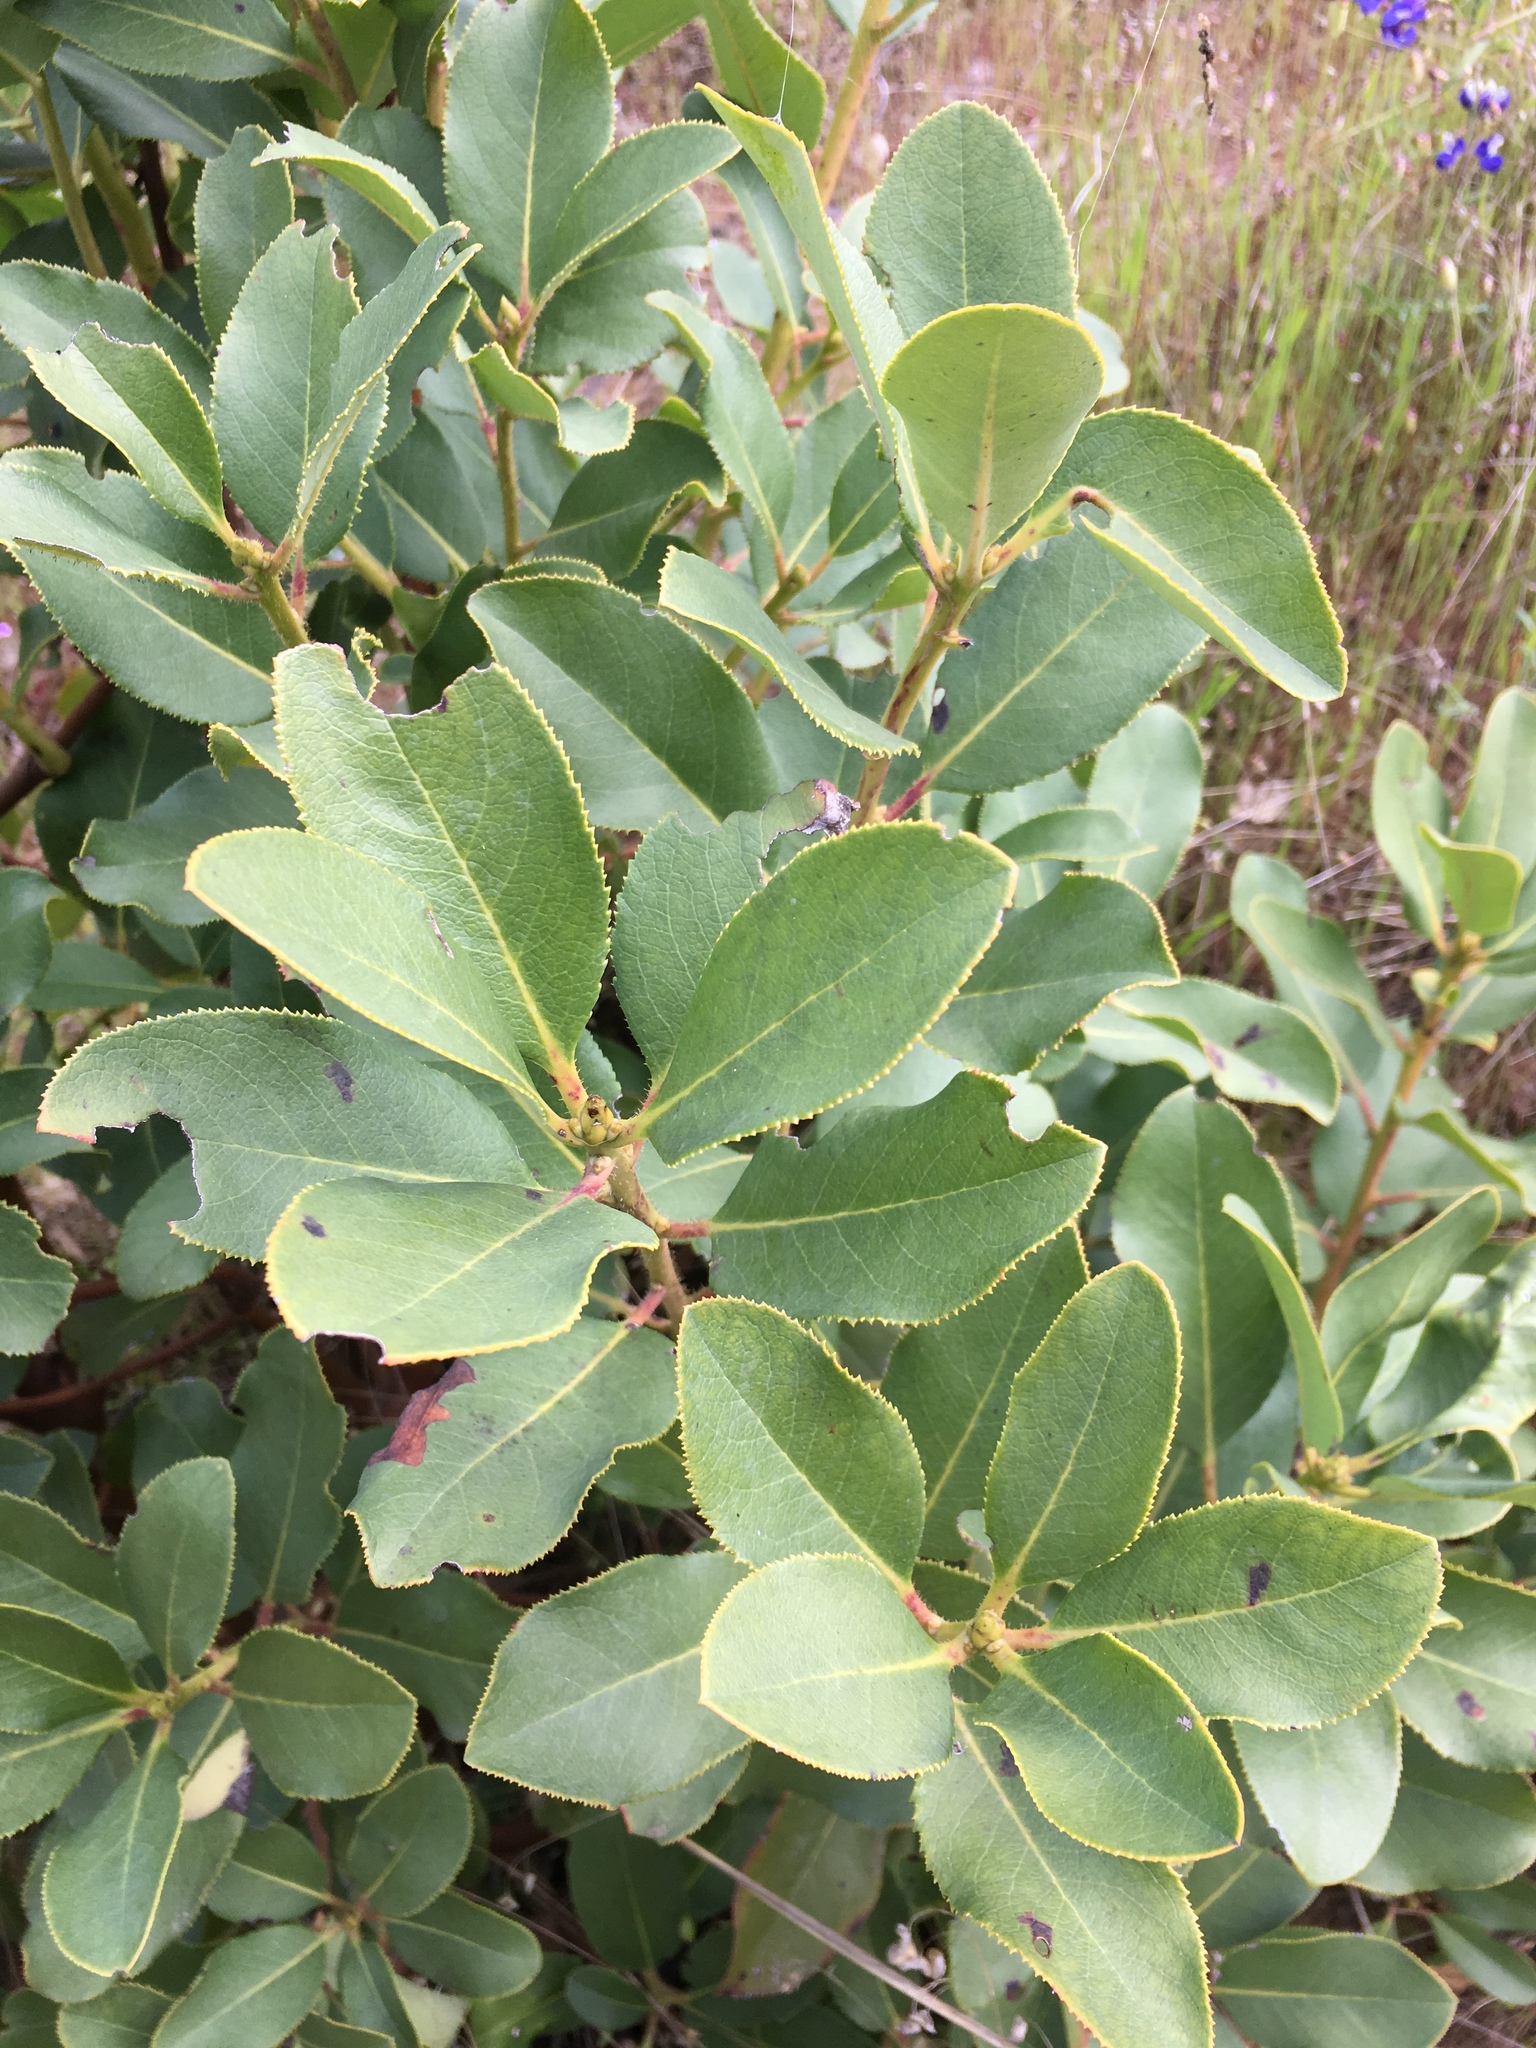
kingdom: Plantae
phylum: Tracheophyta
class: Magnoliopsida
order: Ericales
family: Ericaceae
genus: Arbutus
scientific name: Arbutus menziesii
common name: Pacific madrone
